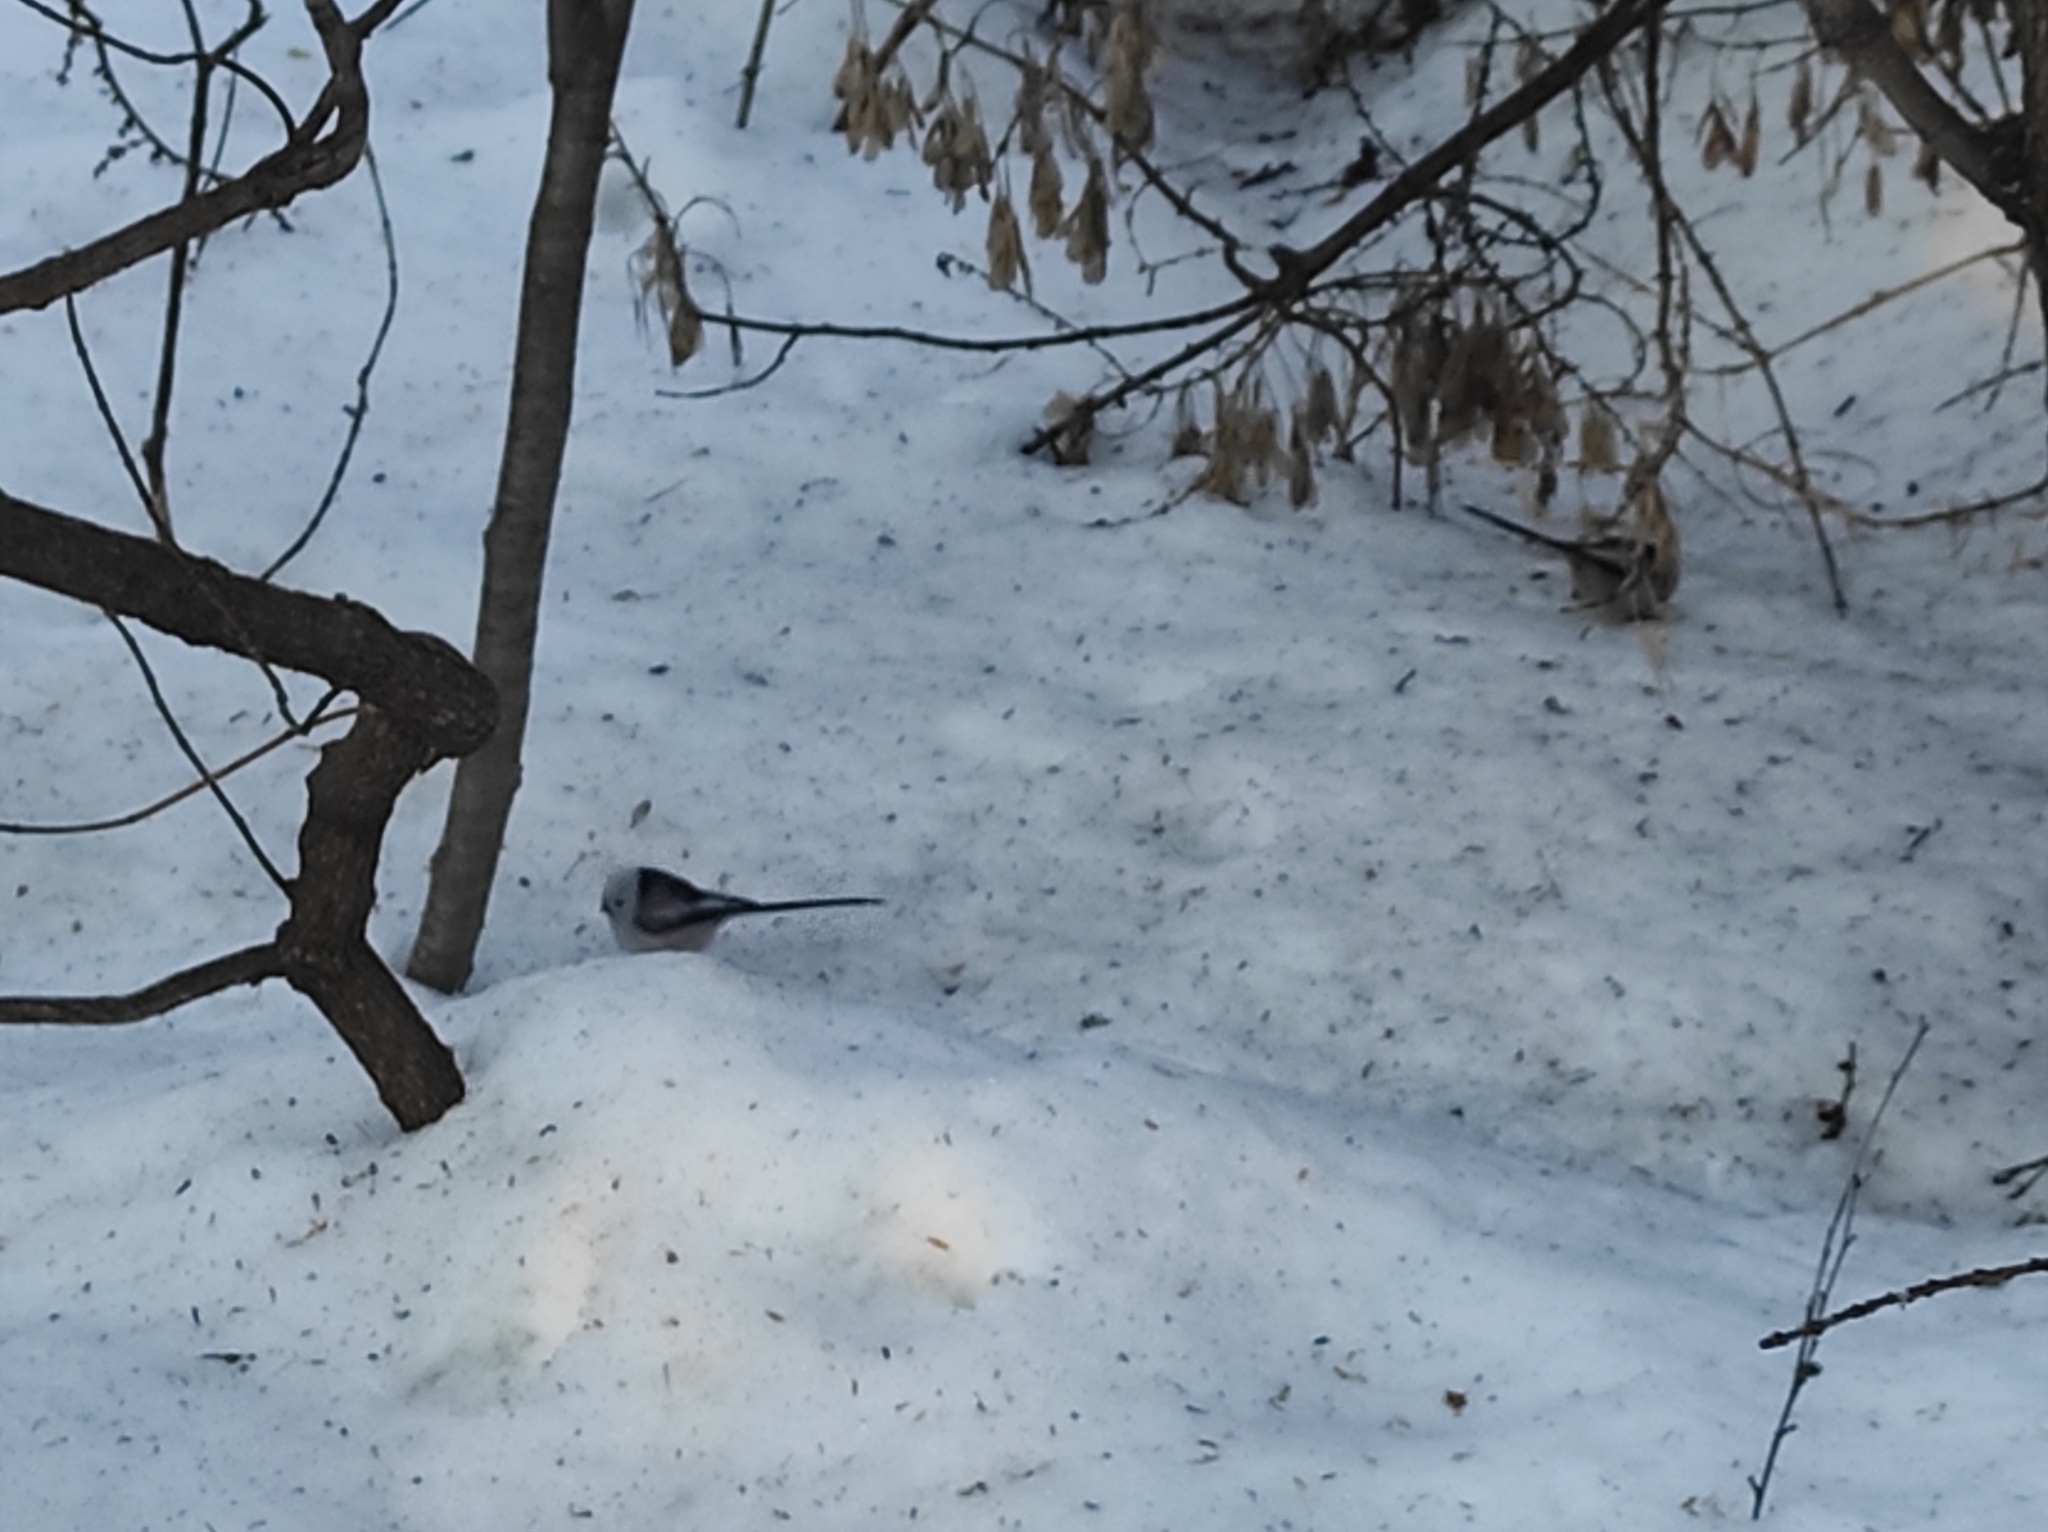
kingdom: Animalia
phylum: Chordata
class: Aves
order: Passeriformes
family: Aegithalidae
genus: Aegithalos
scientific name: Aegithalos caudatus
